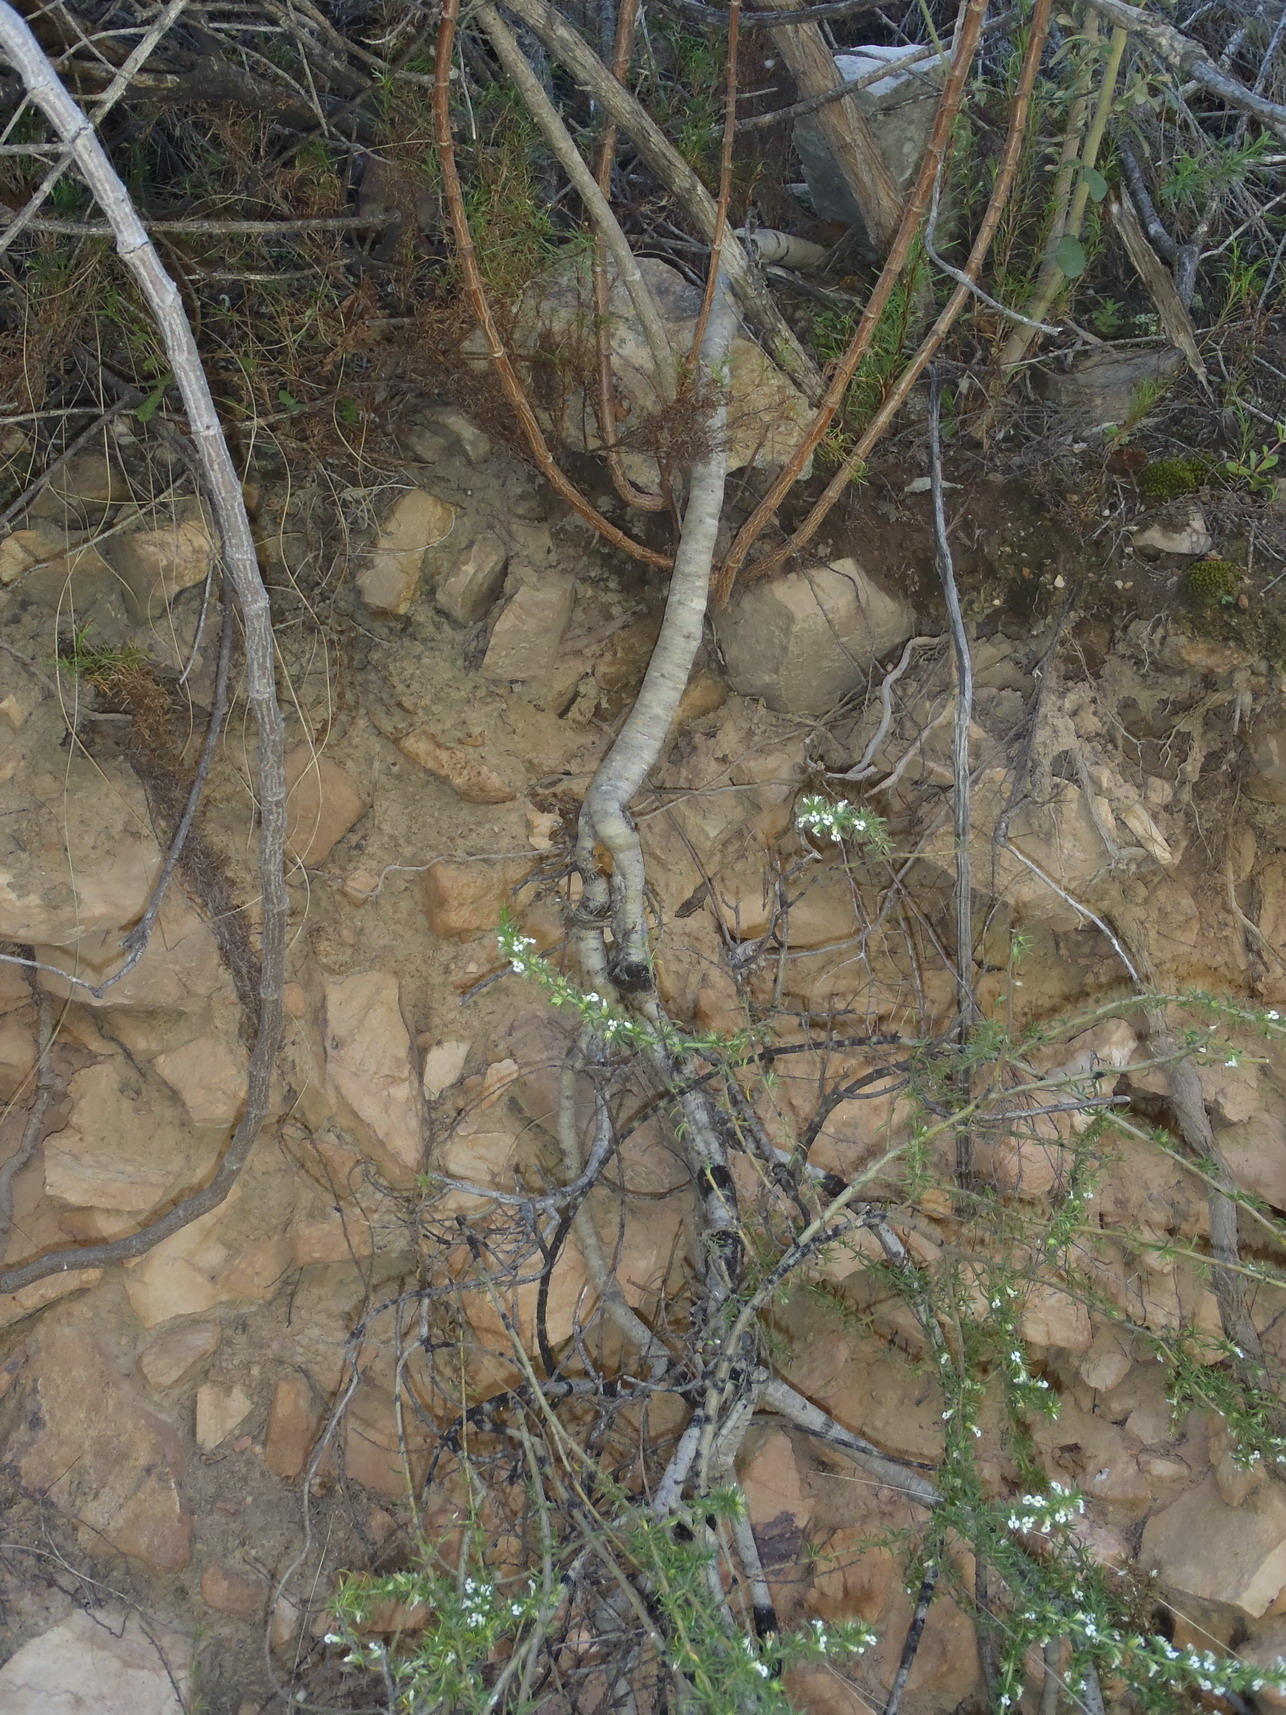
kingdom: Plantae
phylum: Tracheophyta
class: Magnoliopsida
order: Fabales
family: Polygalaceae
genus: Muraltia
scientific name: Muraltia ericifolia
